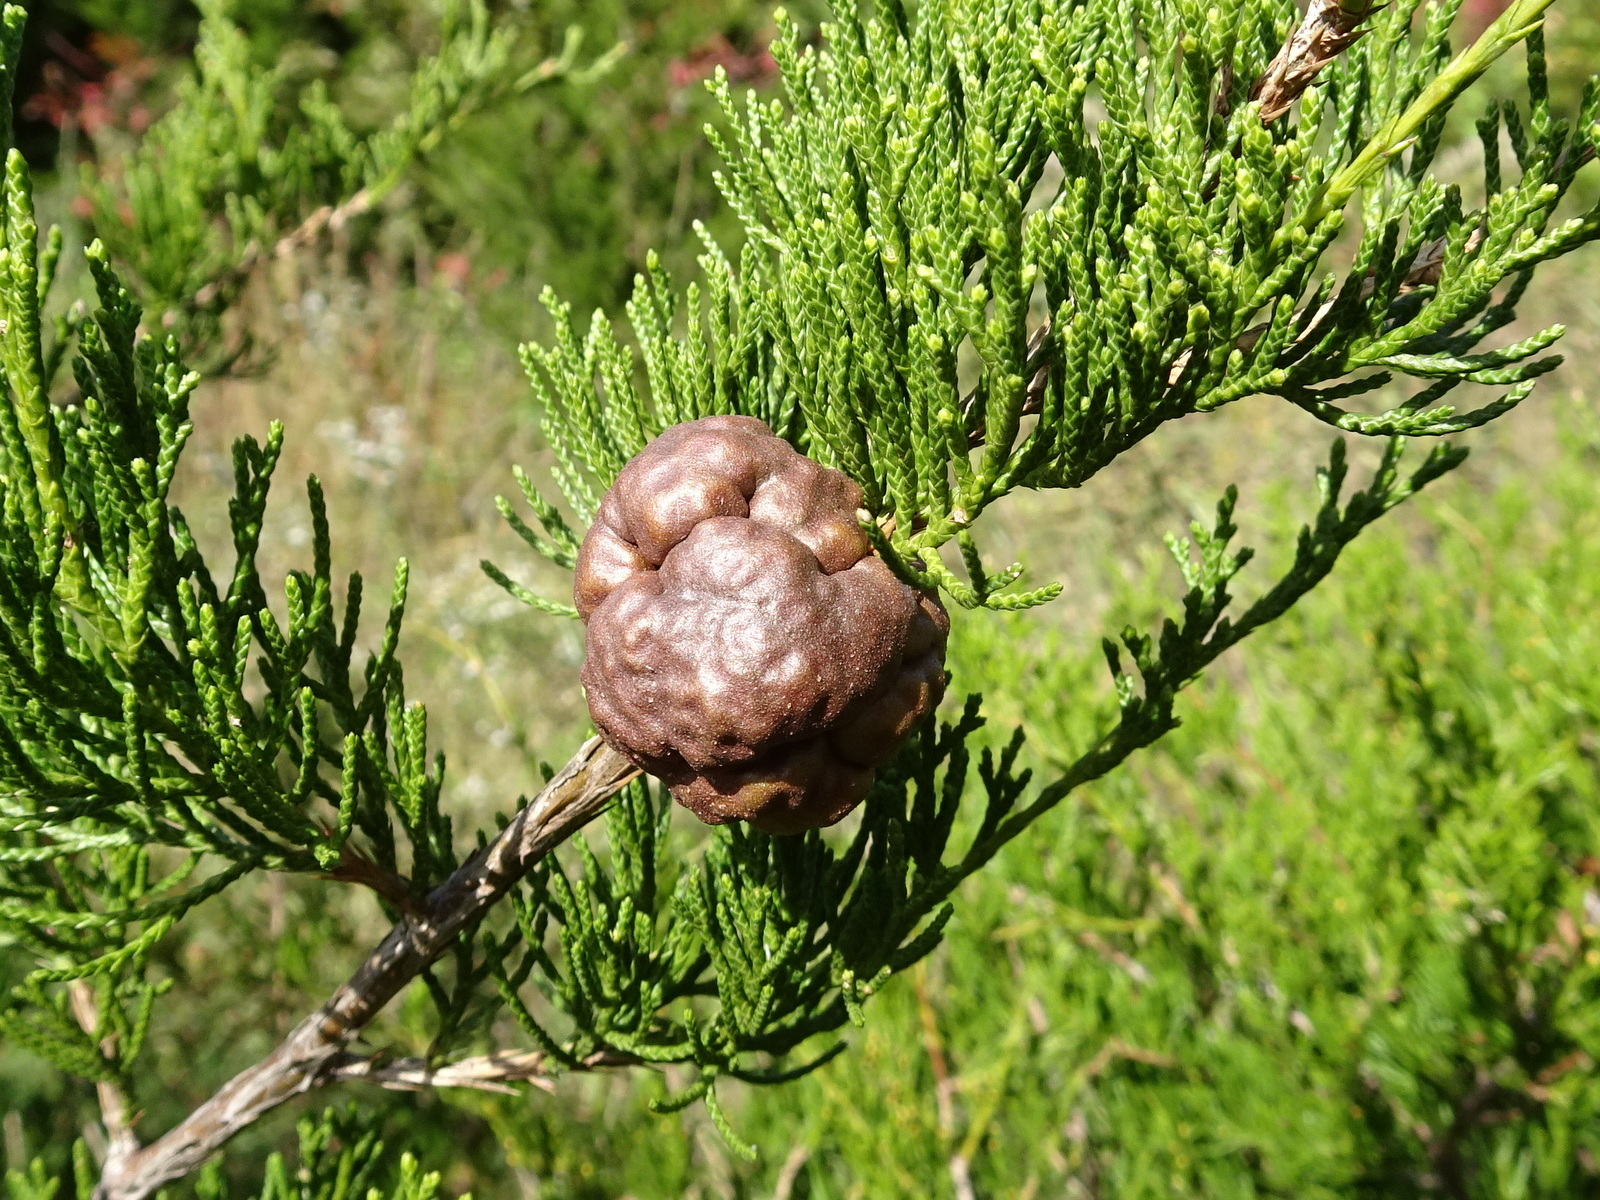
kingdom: Fungi
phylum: Basidiomycota
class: Pucciniomycetes
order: Pucciniales
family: Gymnosporangiaceae
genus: Gymnosporangium
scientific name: Gymnosporangium juniperi-virginianae
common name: Juniper-apple rust
